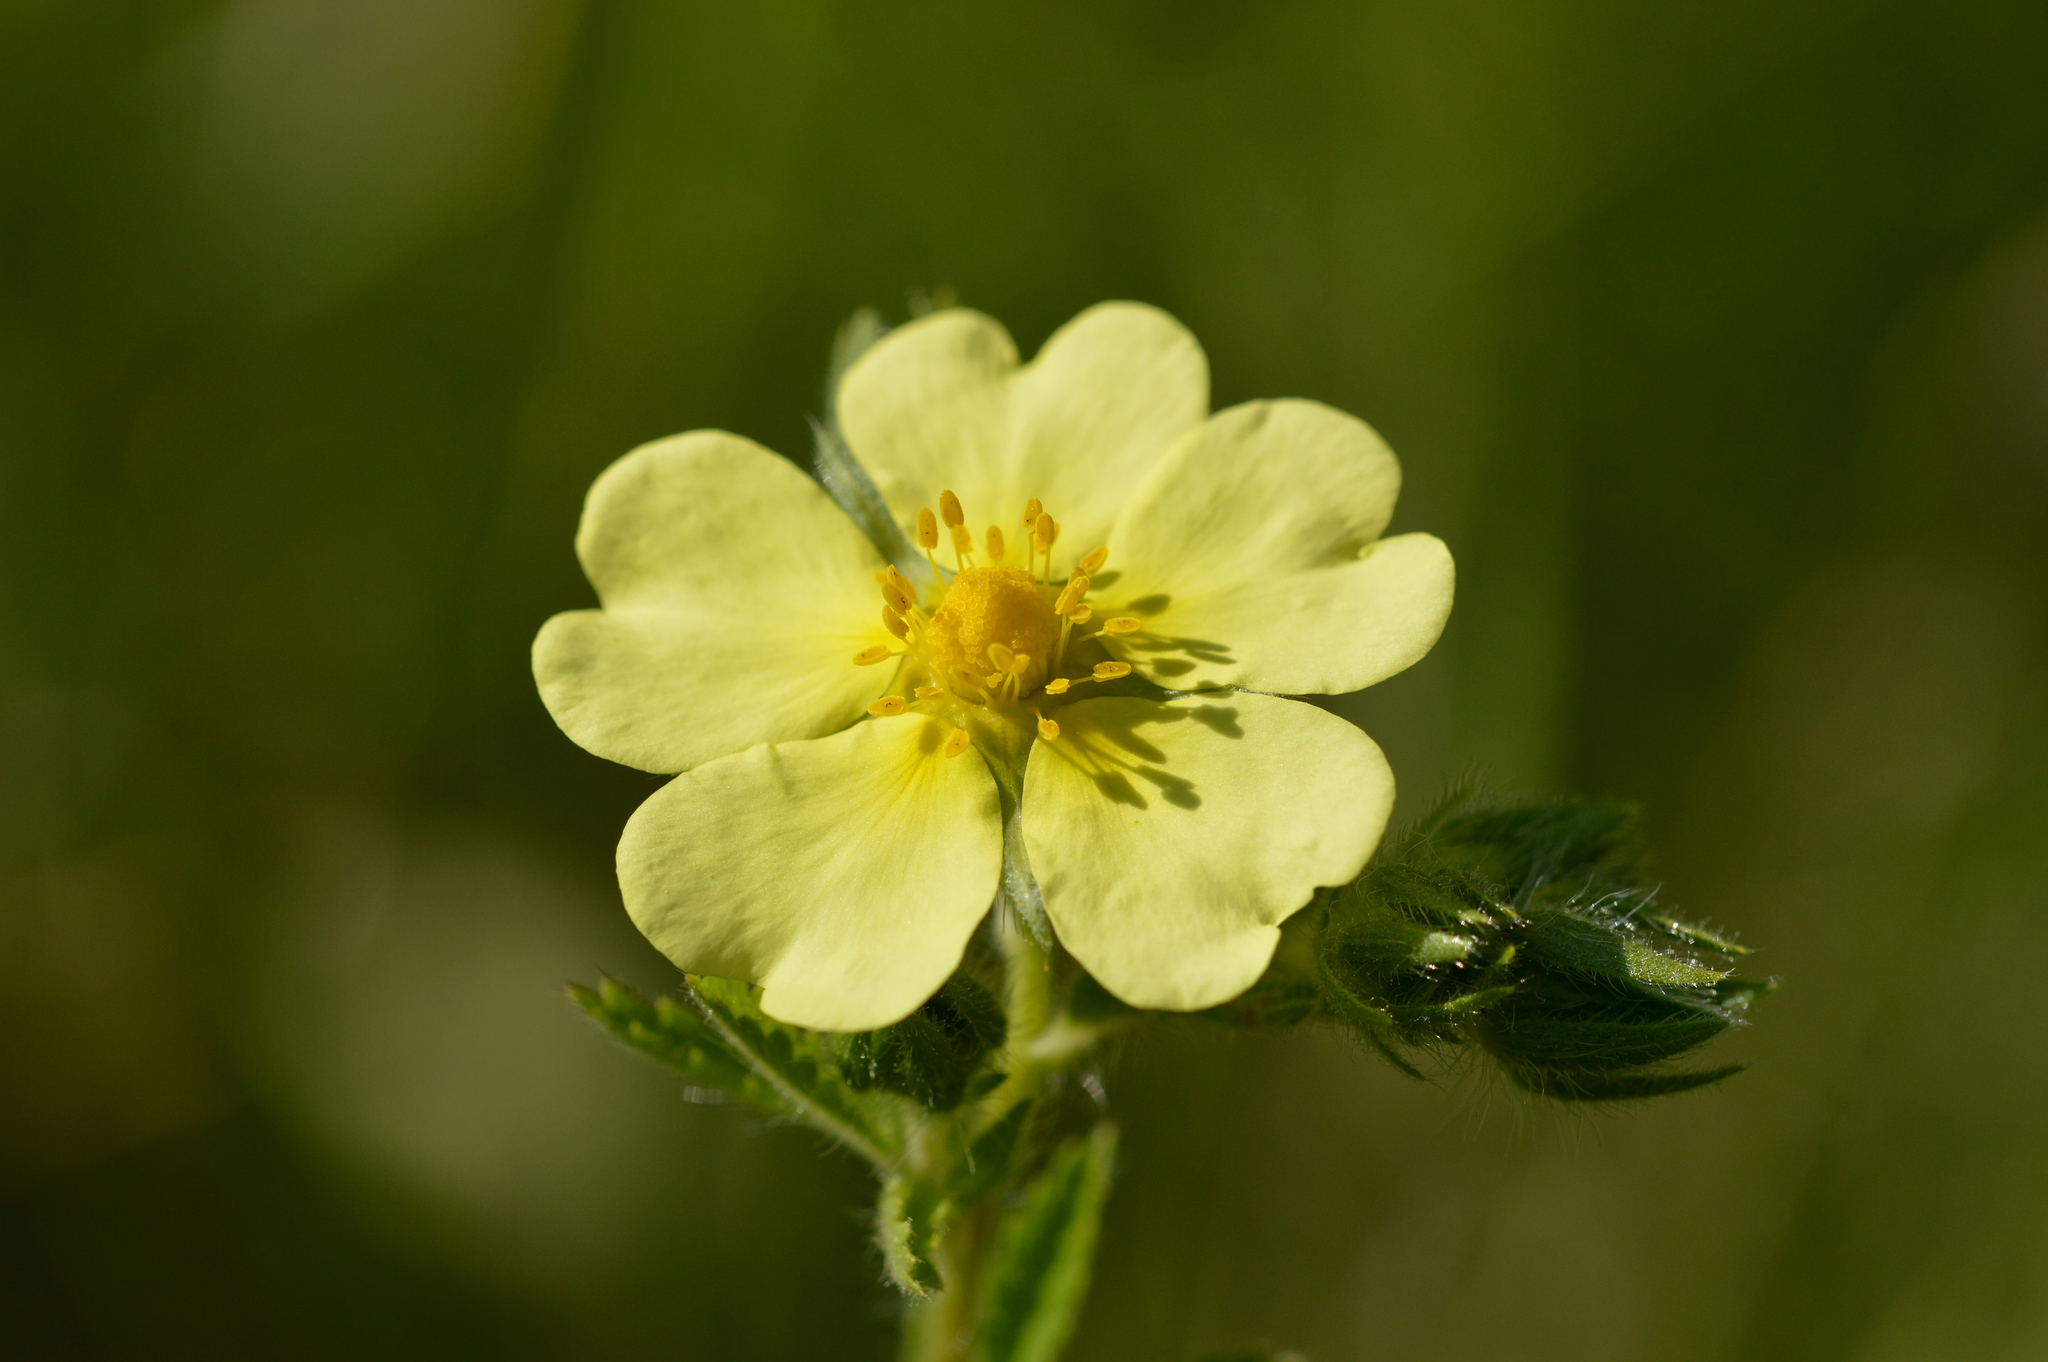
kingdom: Plantae
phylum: Tracheophyta
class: Magnoliopsida
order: Rosales
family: Rosaceae
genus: Potentilla
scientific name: Potentilla recta
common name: Sulphur cinquefoil
